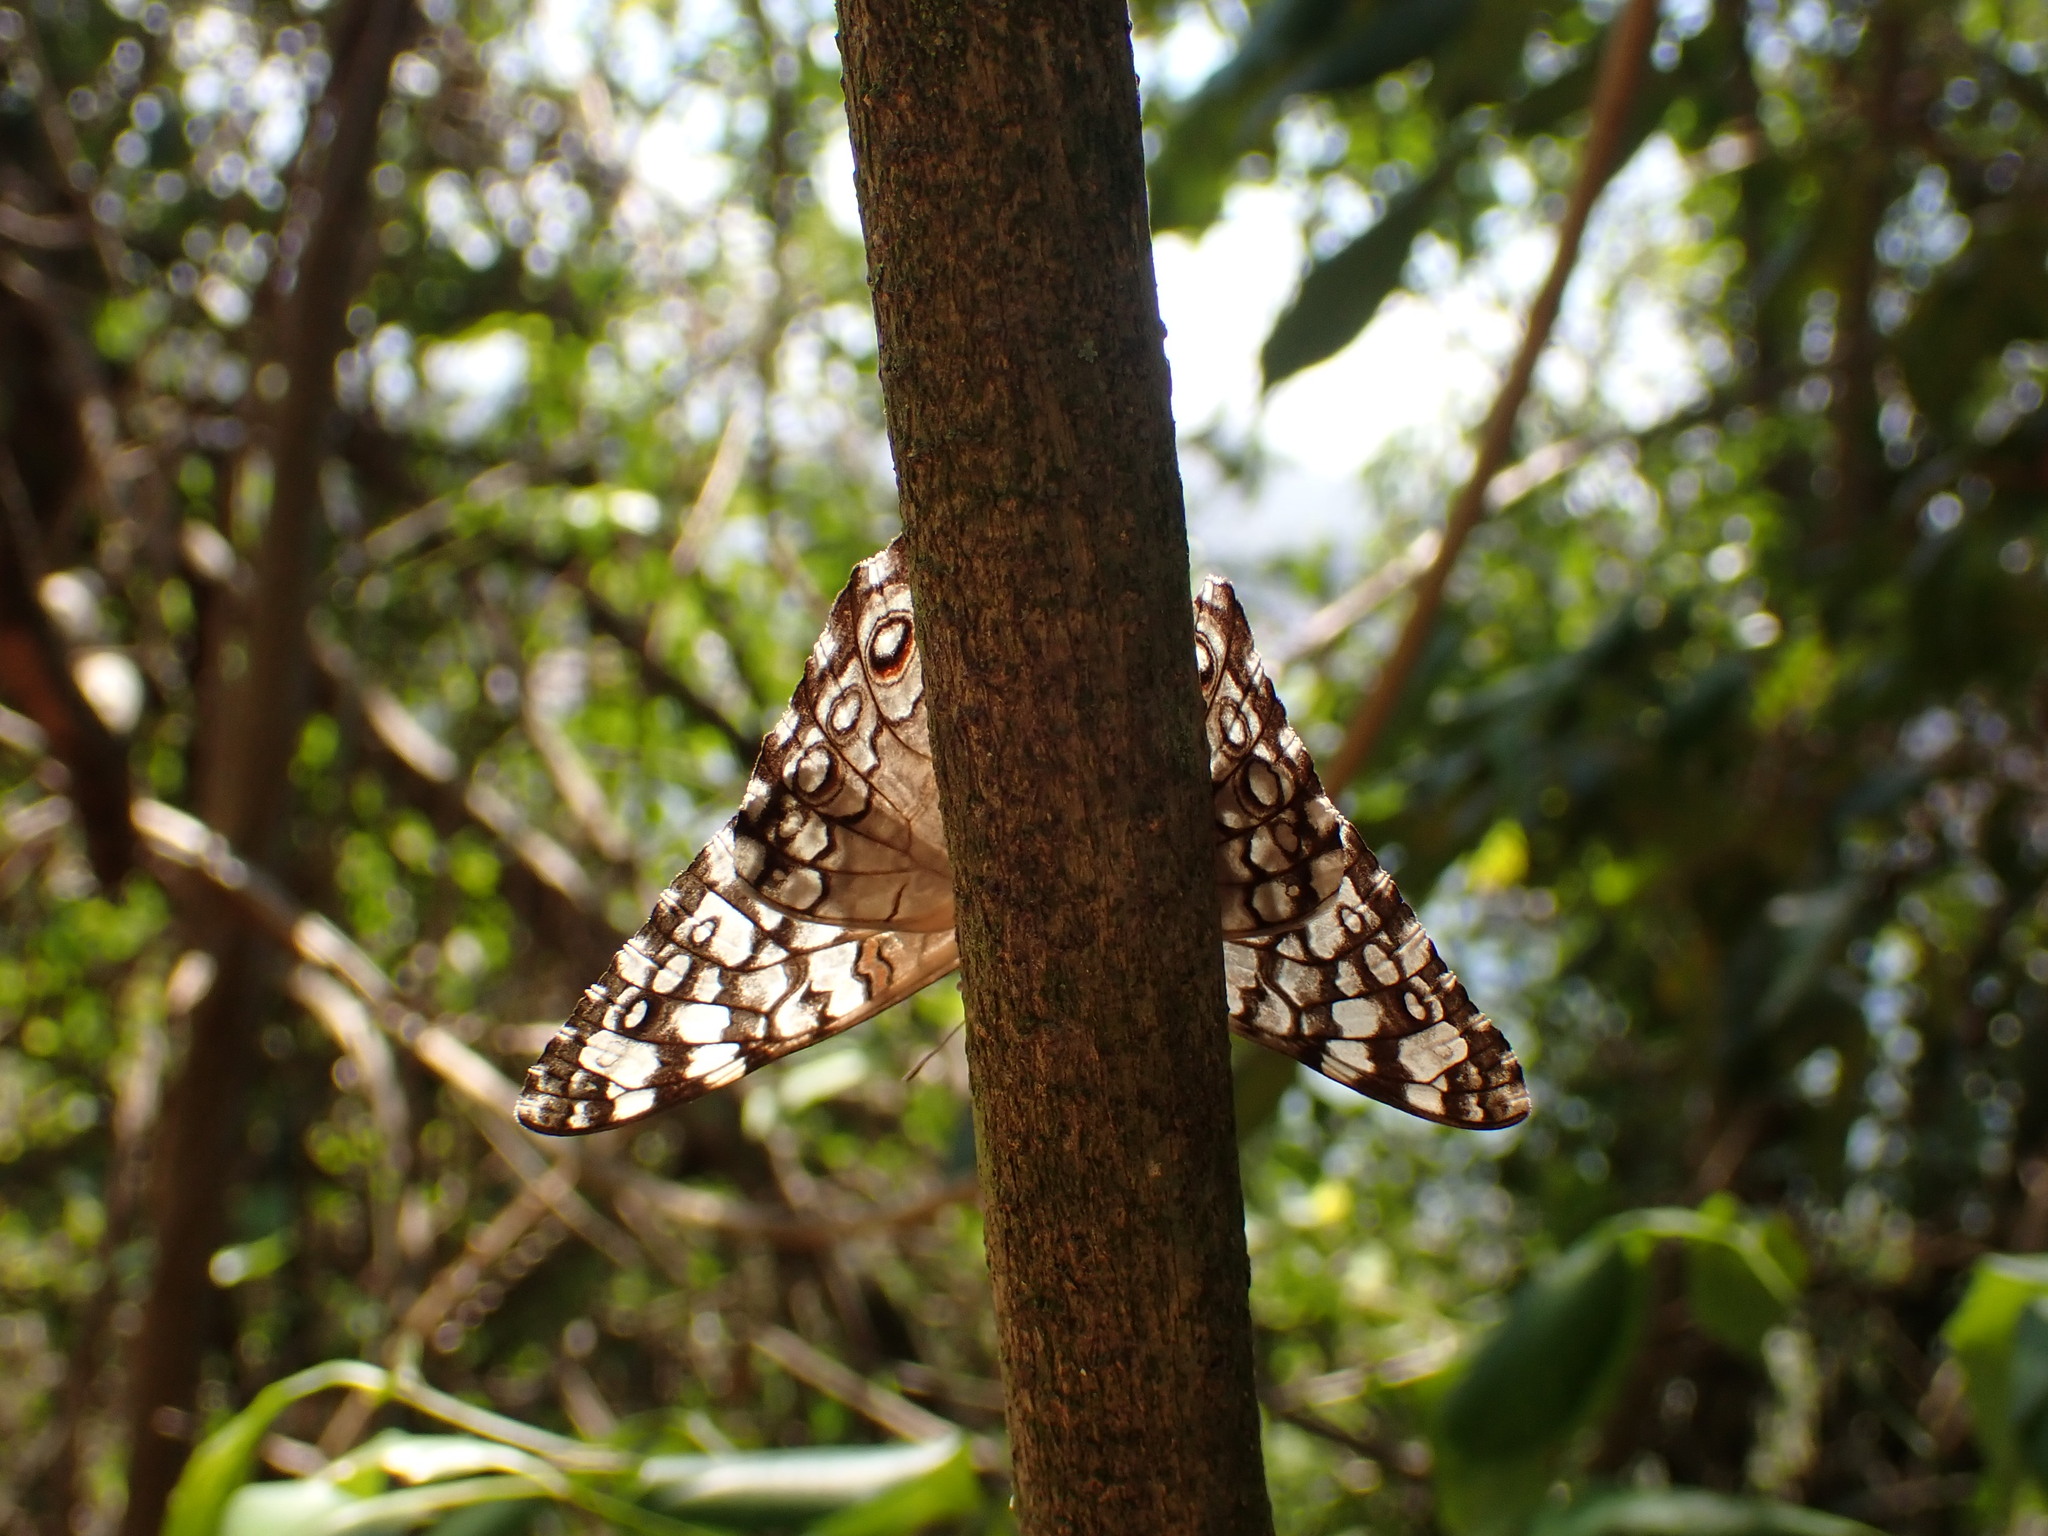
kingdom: Animalia
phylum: Arthropoda
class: Insecta
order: Lepidoptera
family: Nymphalidae
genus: Hamadryas
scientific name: Hamadryas februa
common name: Gray cracker
